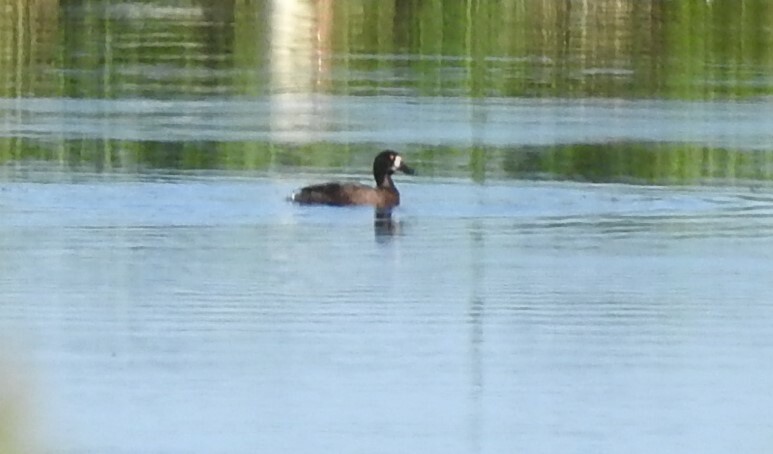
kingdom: Animalia
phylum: Chordata
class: Aves
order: Anseriformes
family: Anatidae
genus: Aythya
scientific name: Aythya fuligula
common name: Tufted duck
